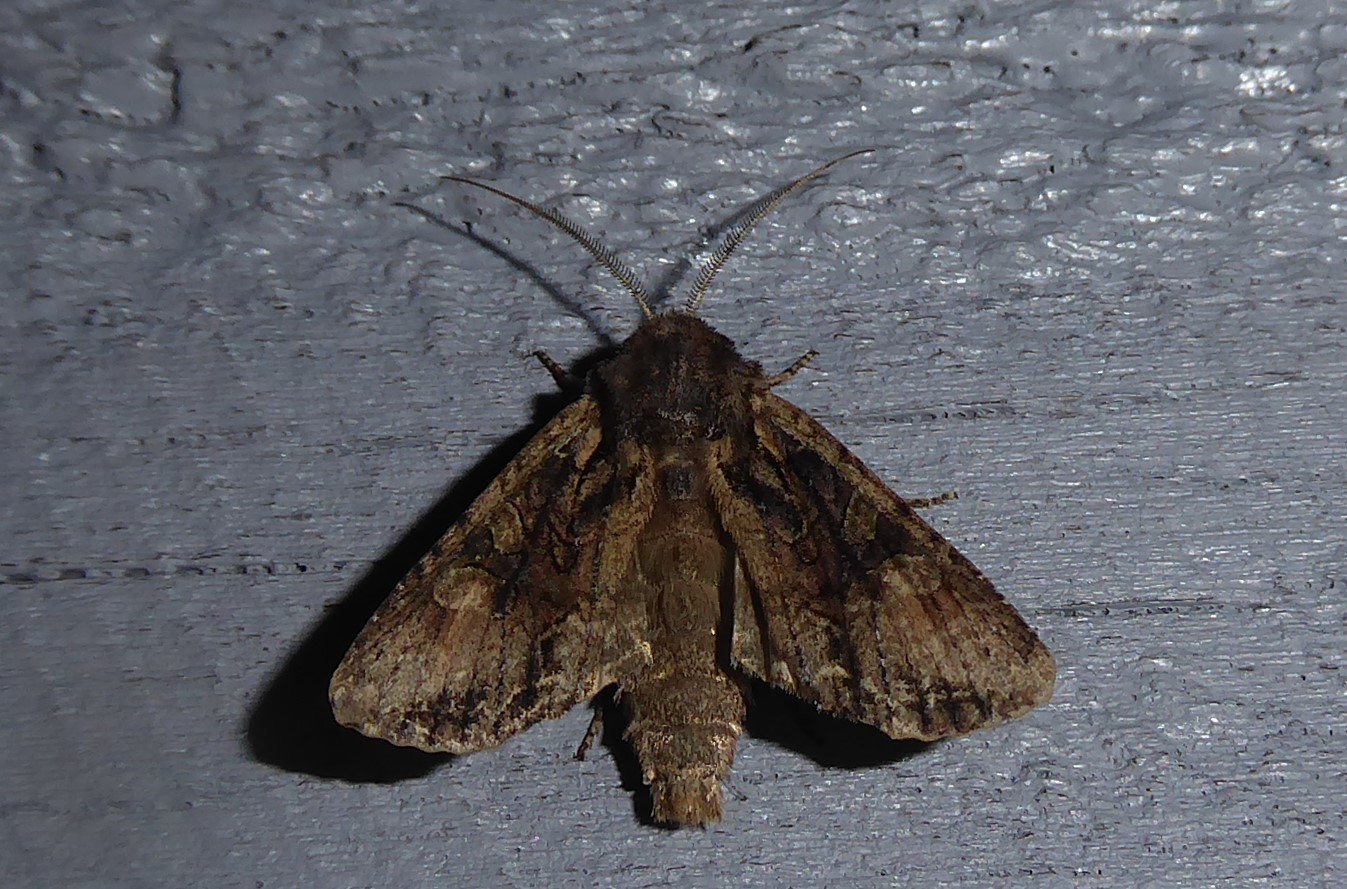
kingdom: Animalia
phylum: Arthropoda
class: Insecta
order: Lepidoptera
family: Noctuidae
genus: Ichneutica
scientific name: Ichneutica mutans
